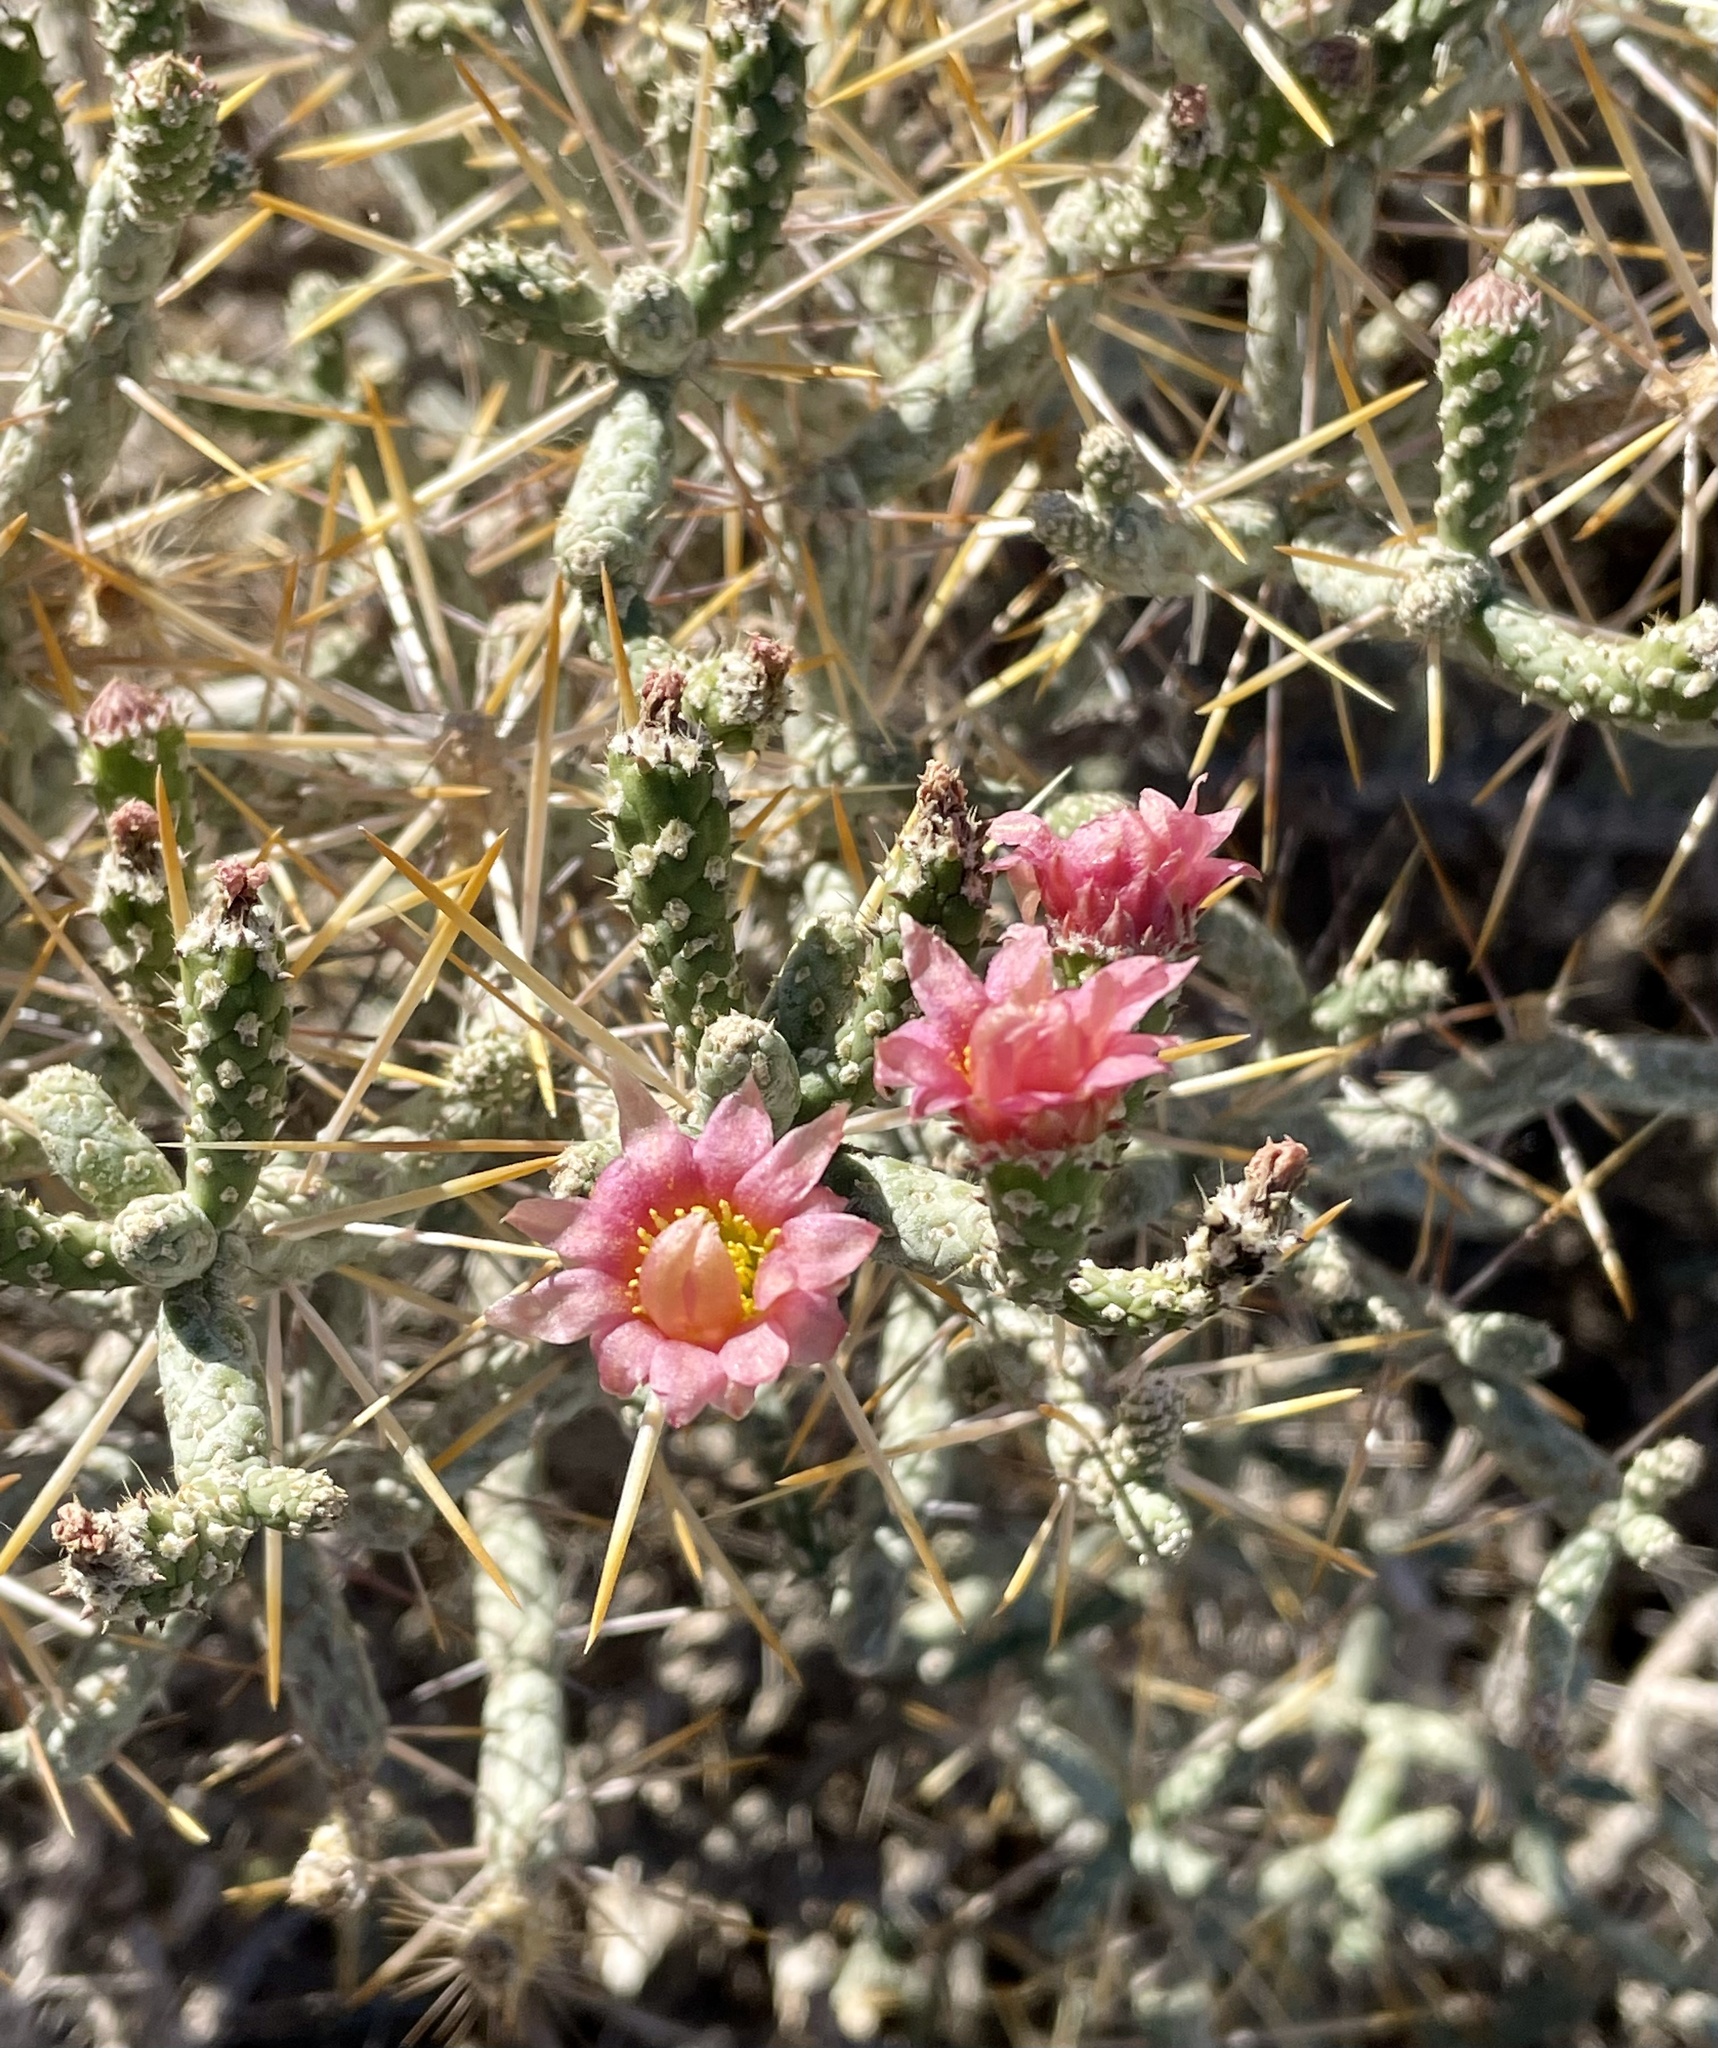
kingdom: Plantae
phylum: Tracheophyta
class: Magnoliopsida
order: Caryophyllales
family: Cactaceae
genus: Cylindropuntia
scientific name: Cylindropuntia ramosissima
